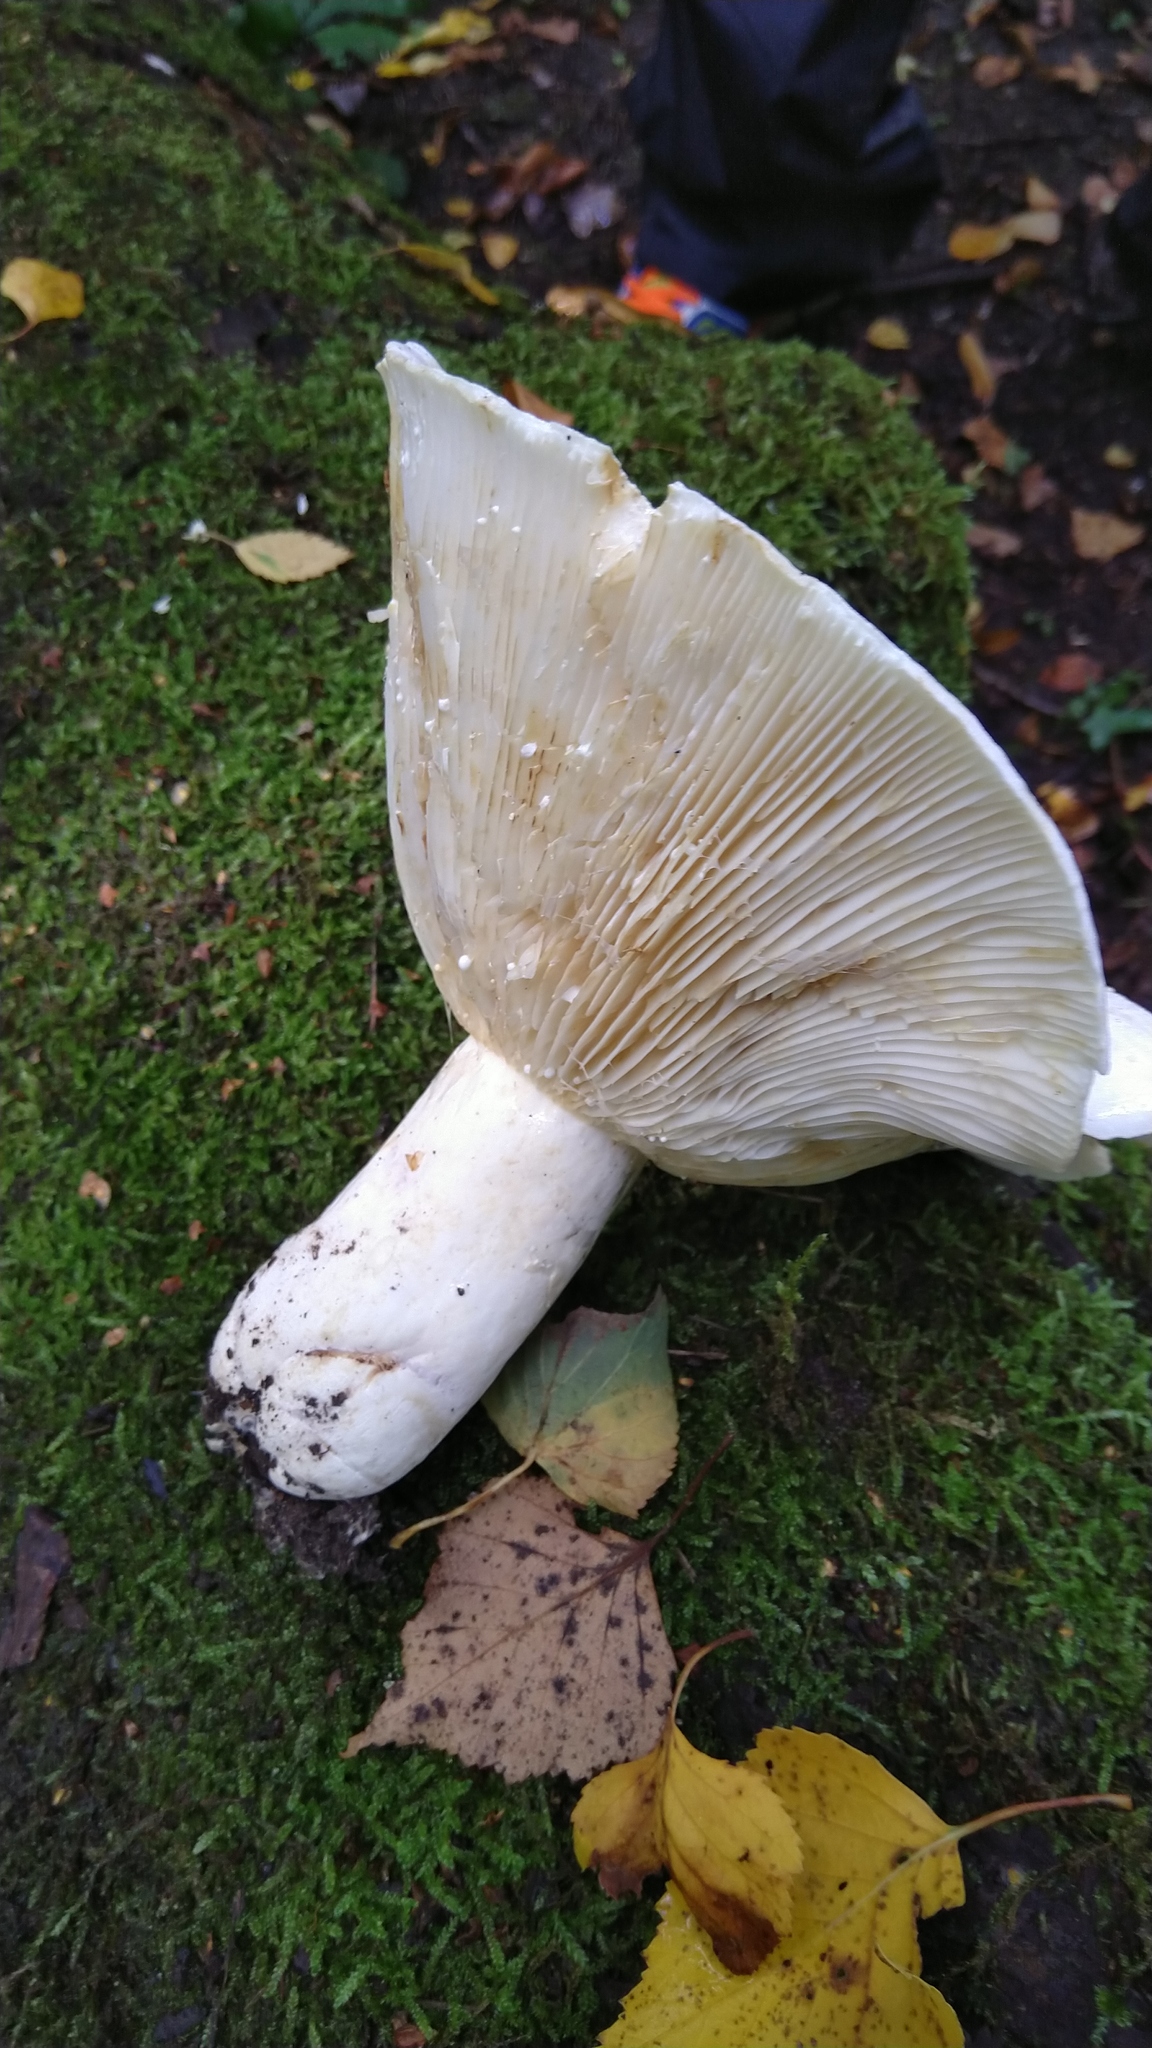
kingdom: Fungi
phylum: Basidiomycota
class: Agaricomycetes
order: Russulales
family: Russulaceae
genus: Lactifluus
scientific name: Lactifluus bertillonii
